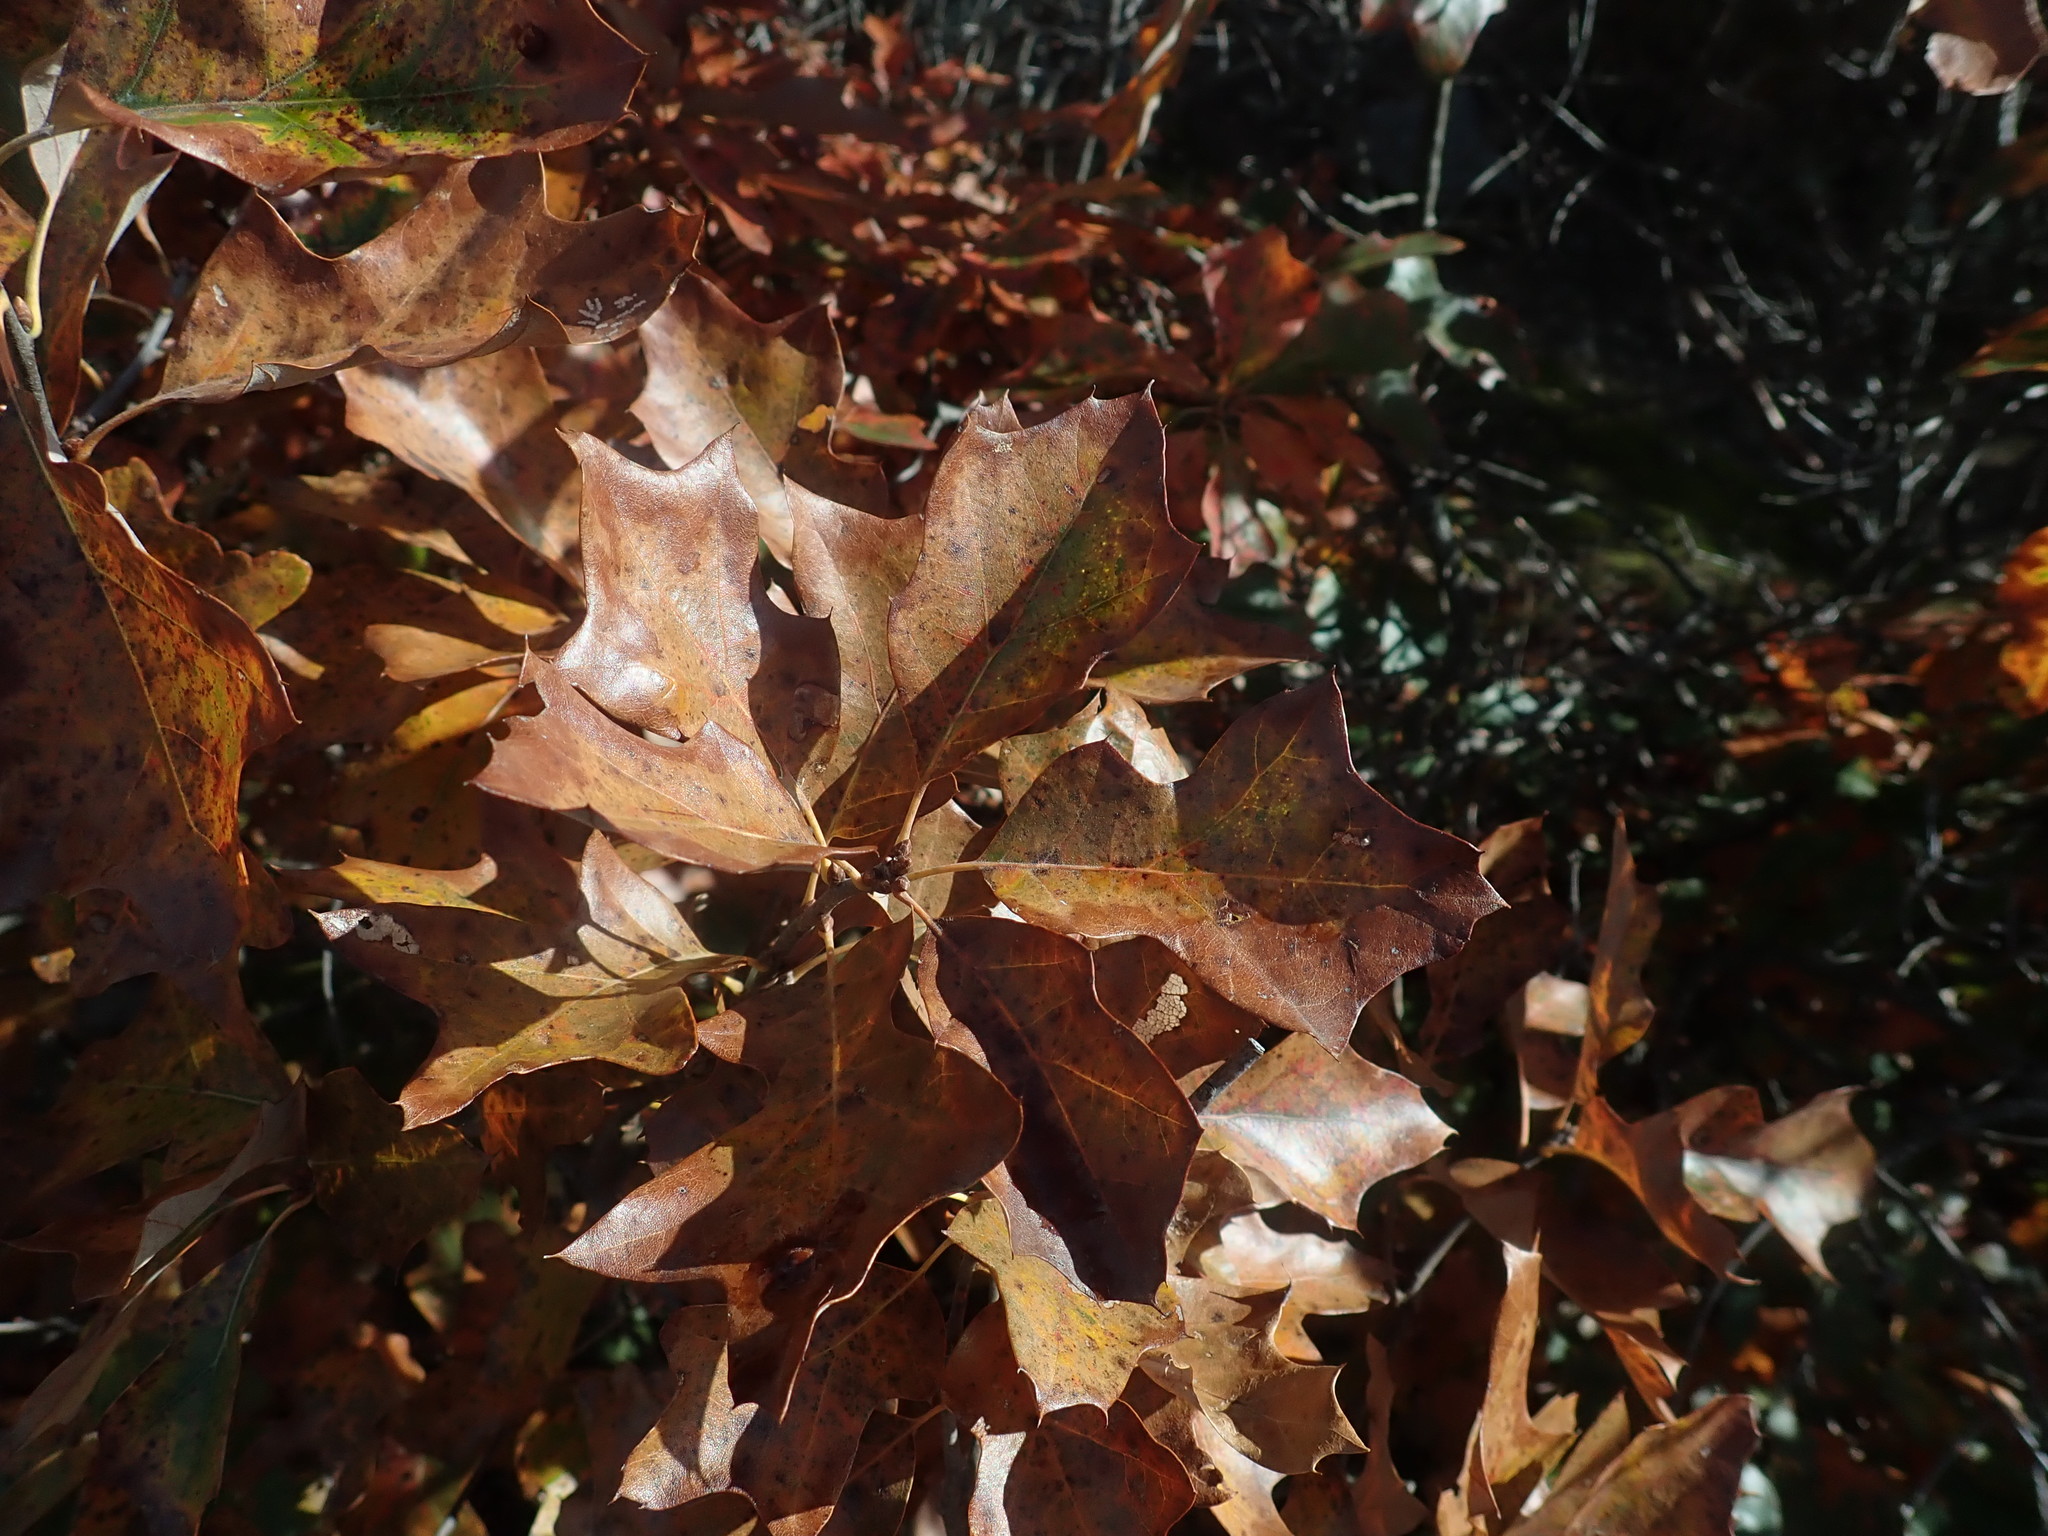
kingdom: Plantae
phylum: Tracheophyta
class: Magnoliopsida
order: Fagales
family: Fagaceae
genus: Quercus
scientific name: Quercus ilicifolia
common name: Bear oak
